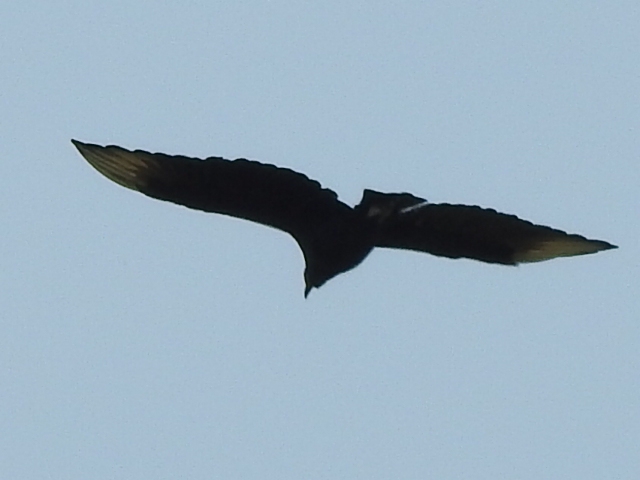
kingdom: Animalia
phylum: Chordata
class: Aves
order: Accipitriformes
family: Cathartidae
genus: Coragyps
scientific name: Coragyps atratus
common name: Black vulture
